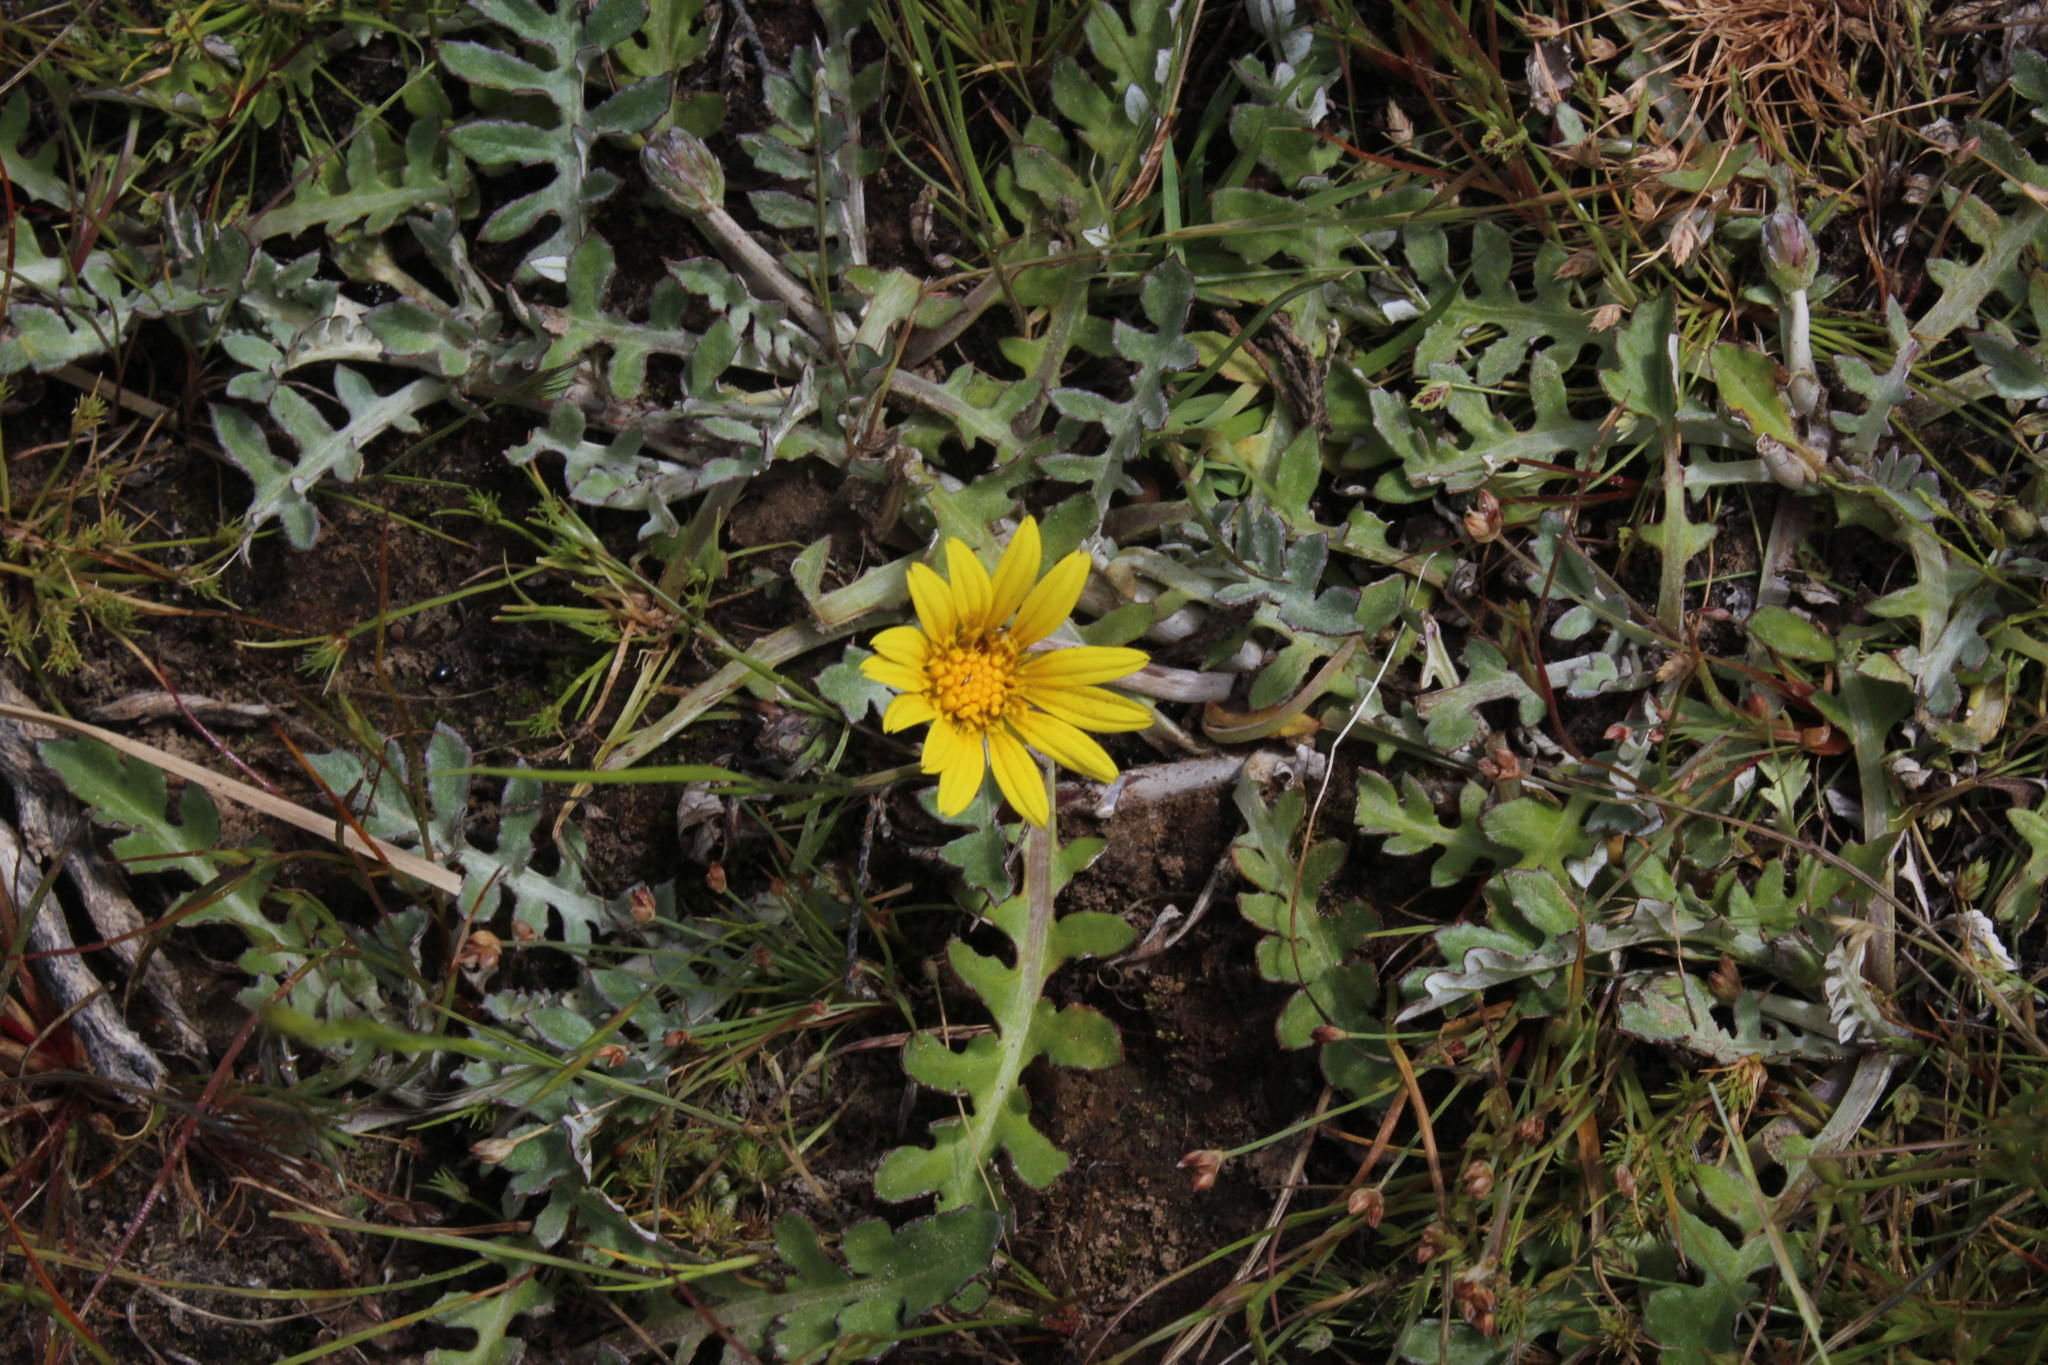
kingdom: Plantae
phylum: Tracheophyta
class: Magnoliopsida
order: Asterales
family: Asteraceae
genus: Arctotheca
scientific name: Arctotheca prostrata
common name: Capeweed
